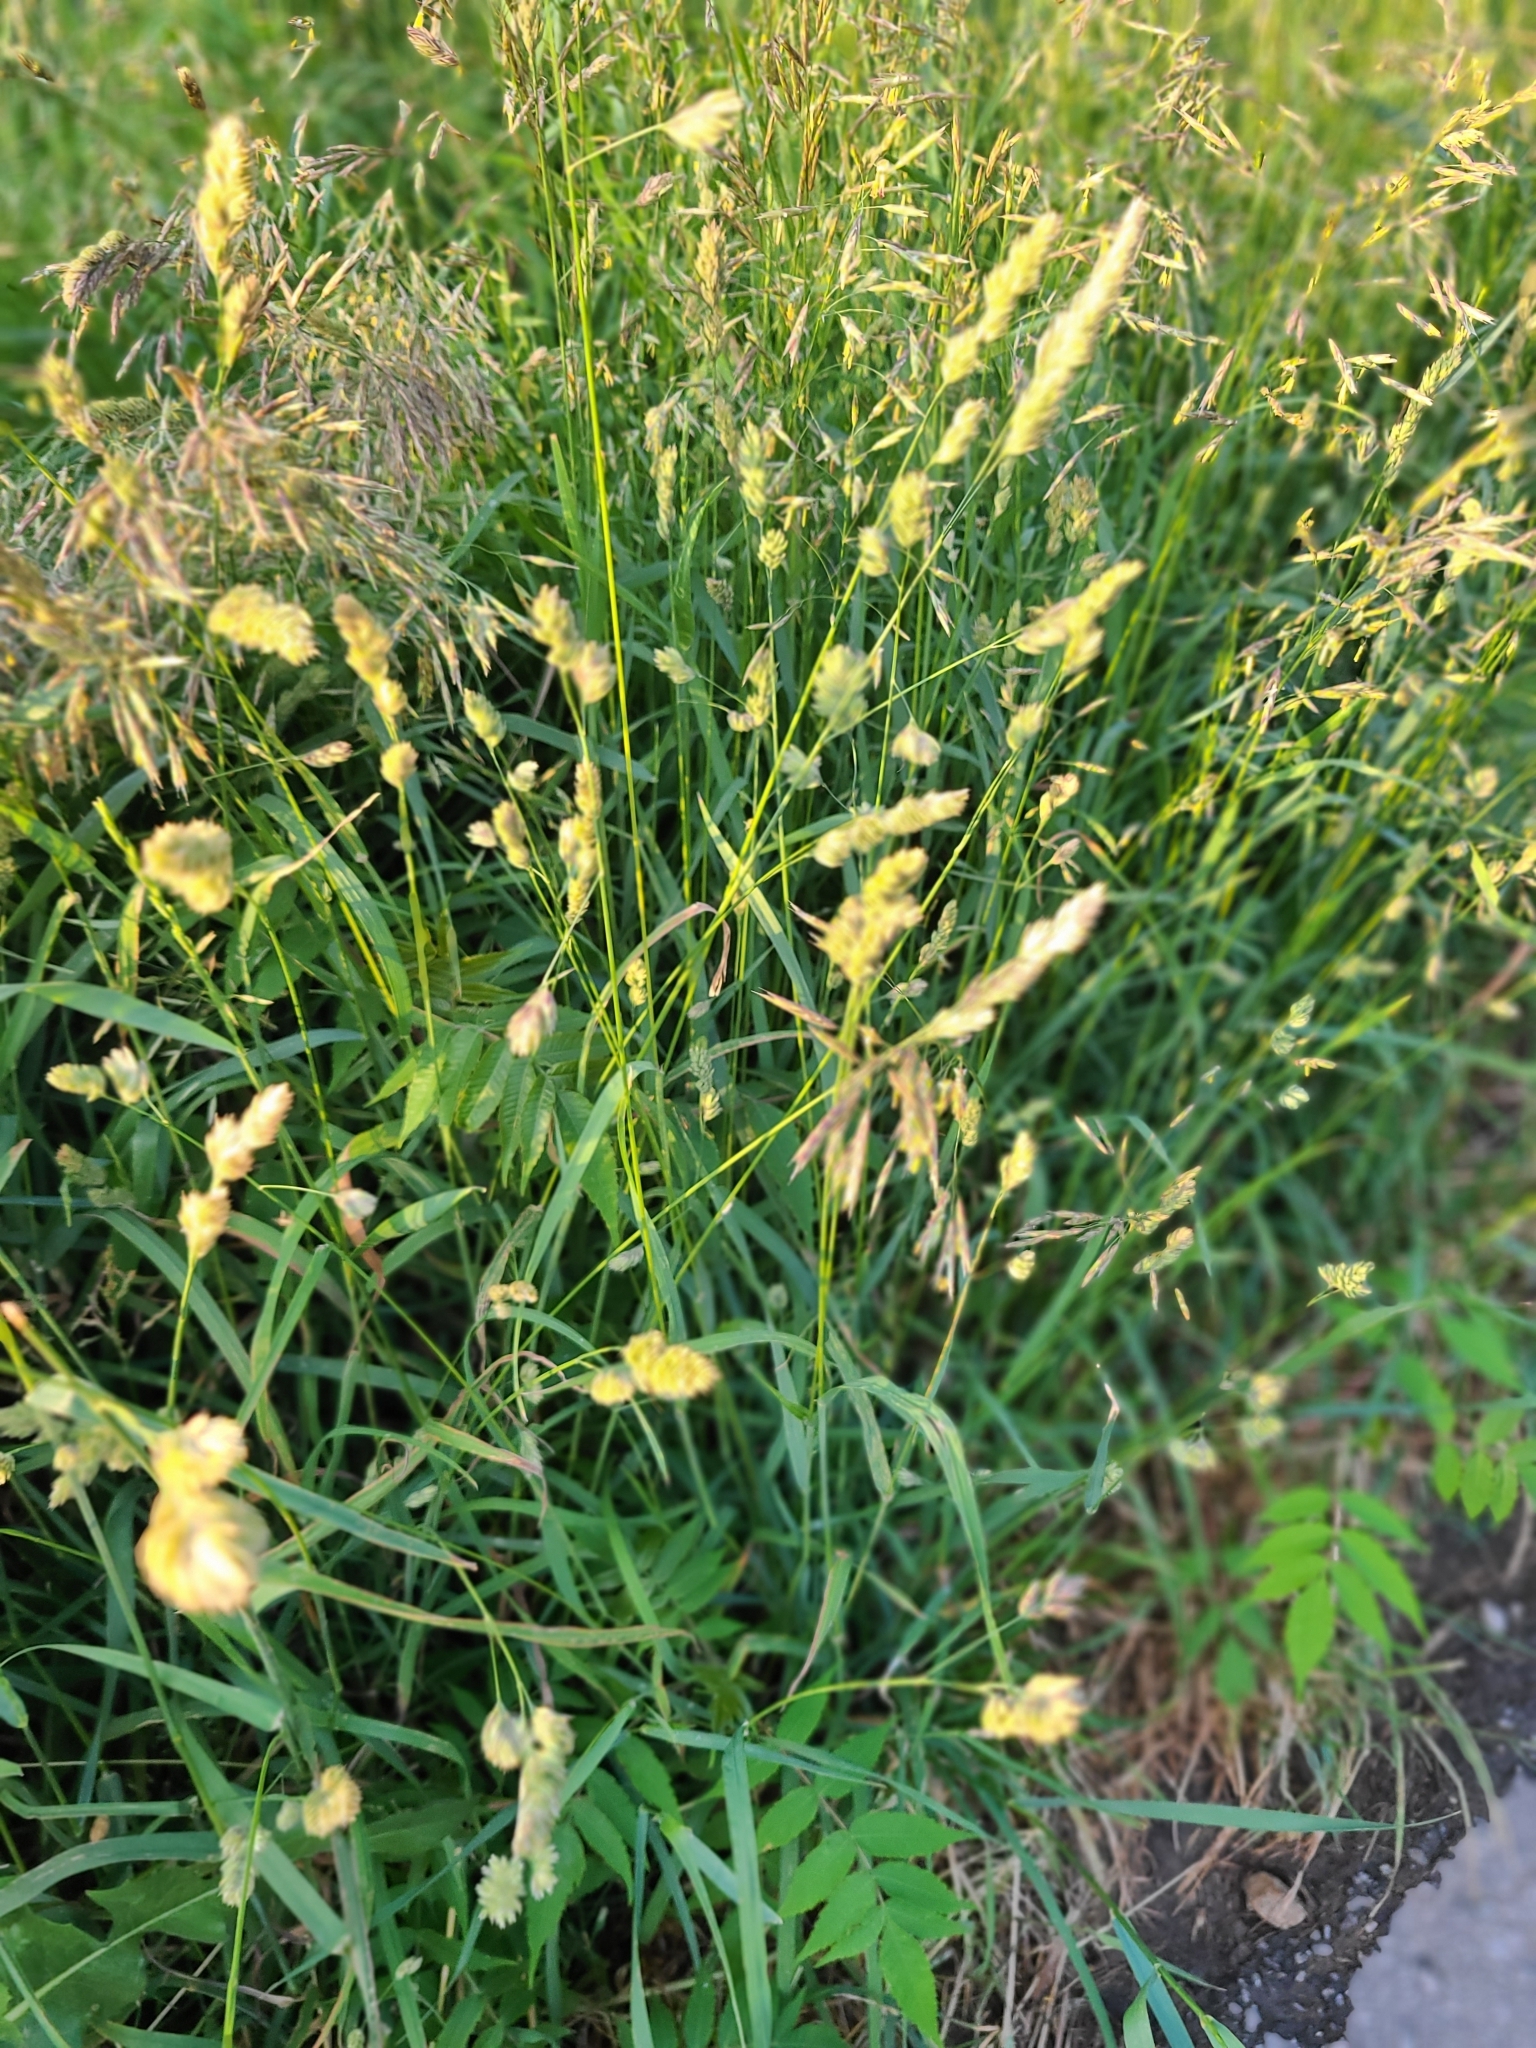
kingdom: Plantae
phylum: Tracheophyta
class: Liliopsida
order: Poales
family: Poaceae
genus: Dactylis
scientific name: Dactylis glomerata
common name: Orchardgrass
